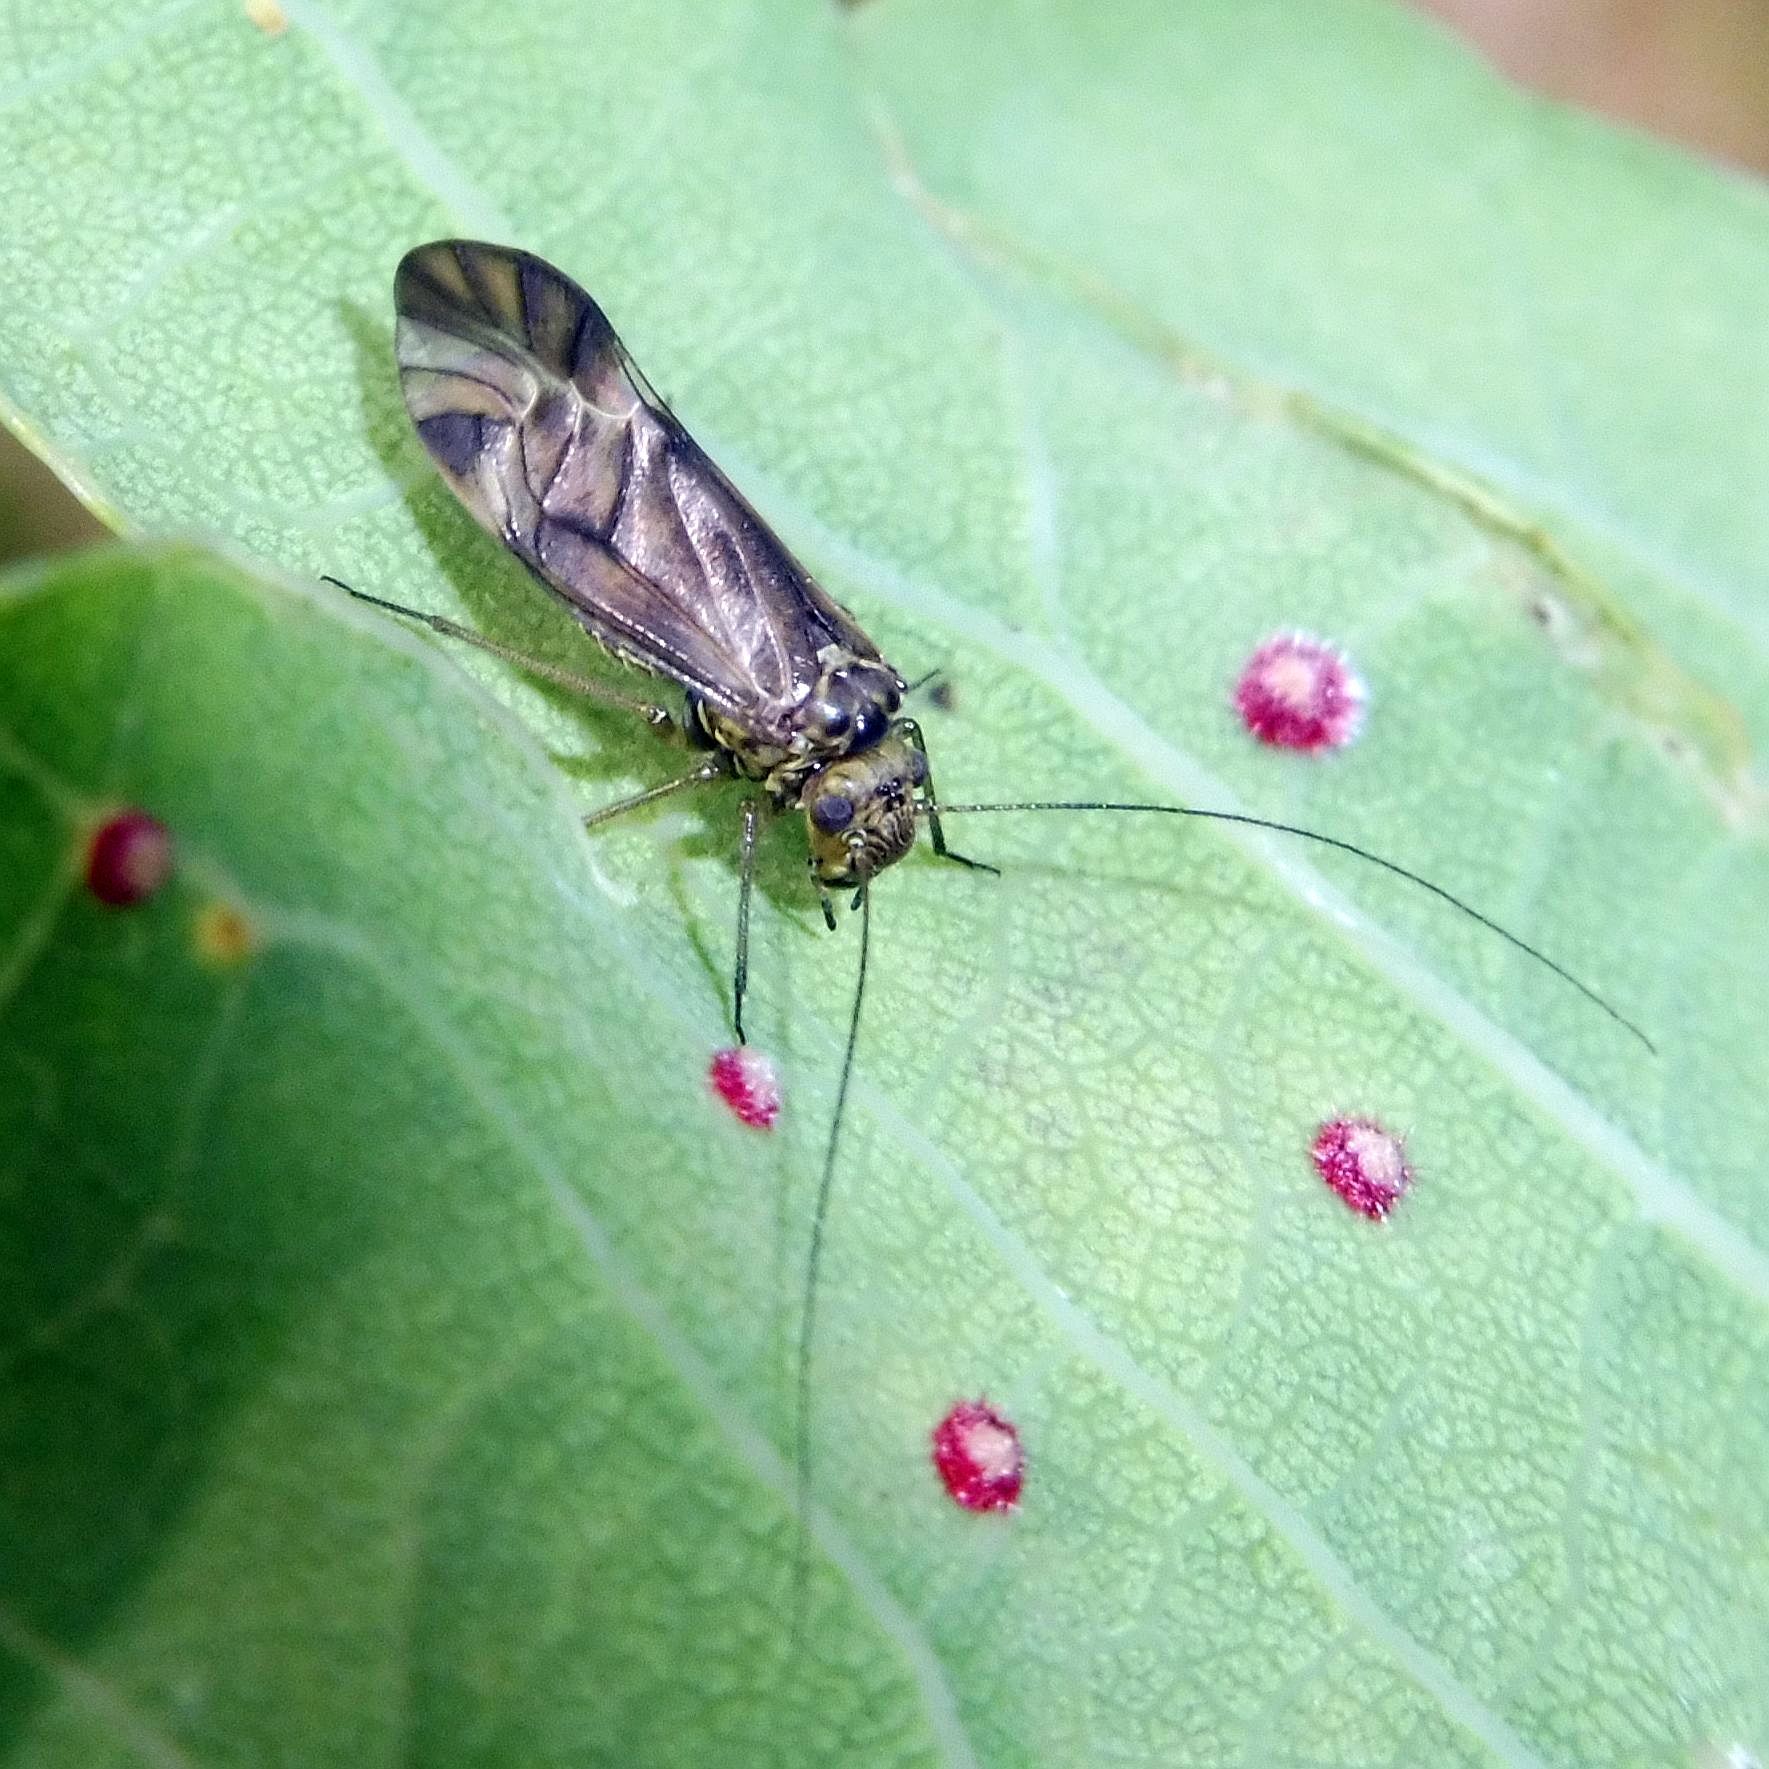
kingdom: Animalia
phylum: Arthropoda
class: Insecta
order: Psocodea
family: Psocidae
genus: Metylophorus
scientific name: Metylophorus nebulosus
